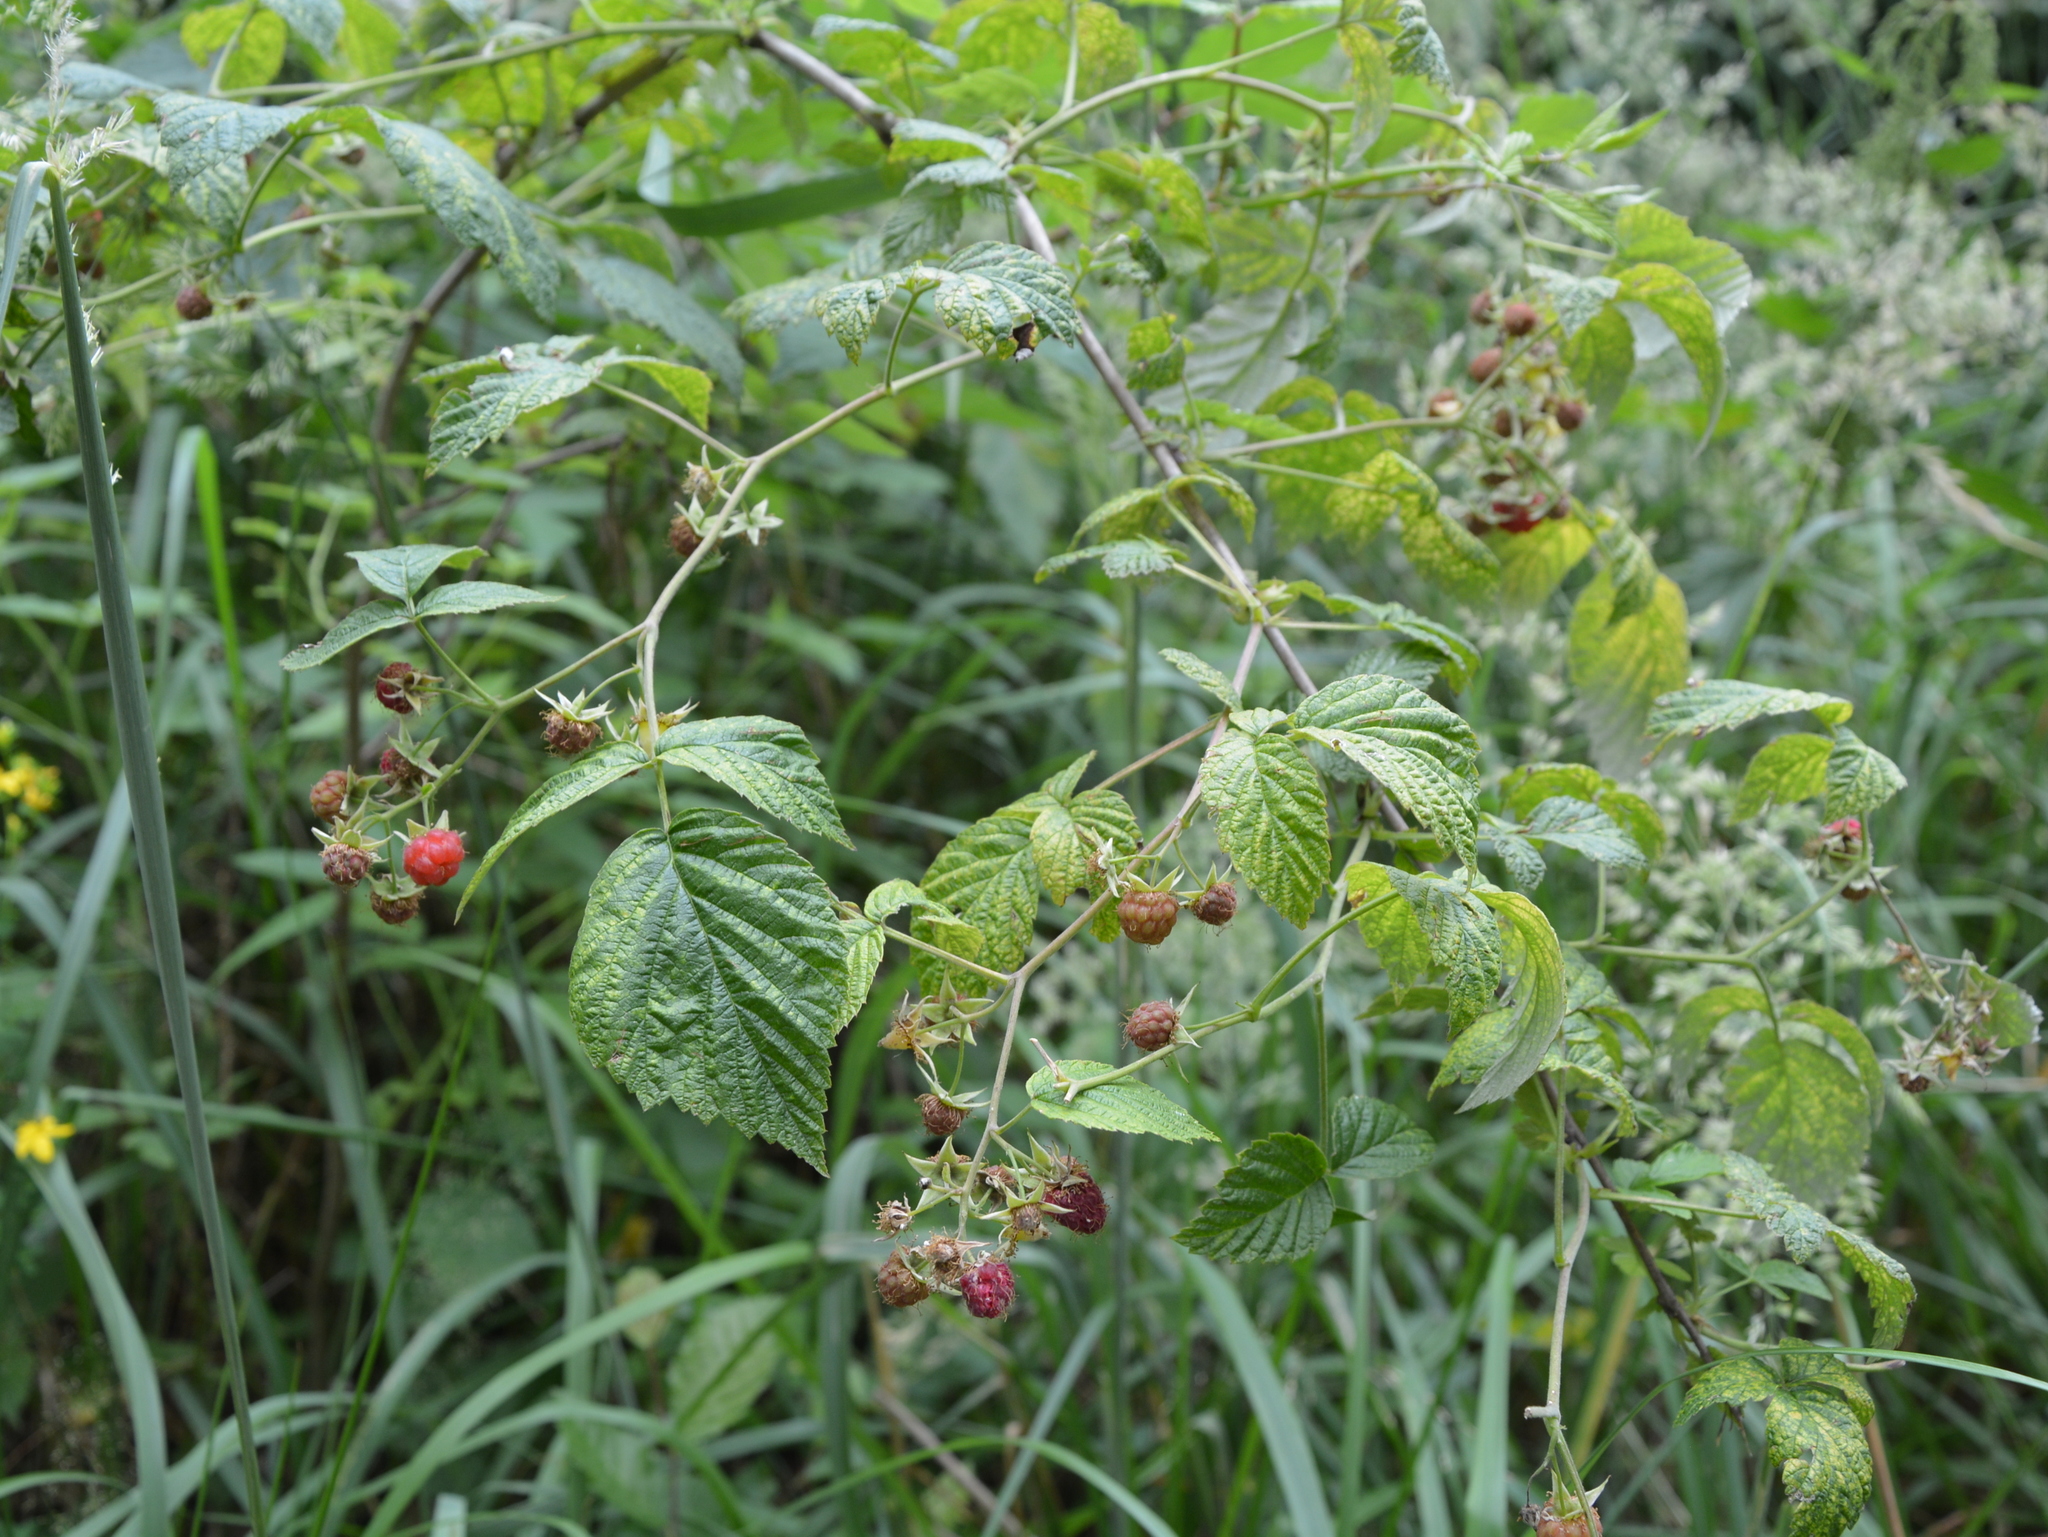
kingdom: Plantae
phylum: Tracheophyta
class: Magnoliopsida
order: Rosales
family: Rosaceae
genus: Rubus
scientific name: Rubus idaeus
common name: Raspberry
